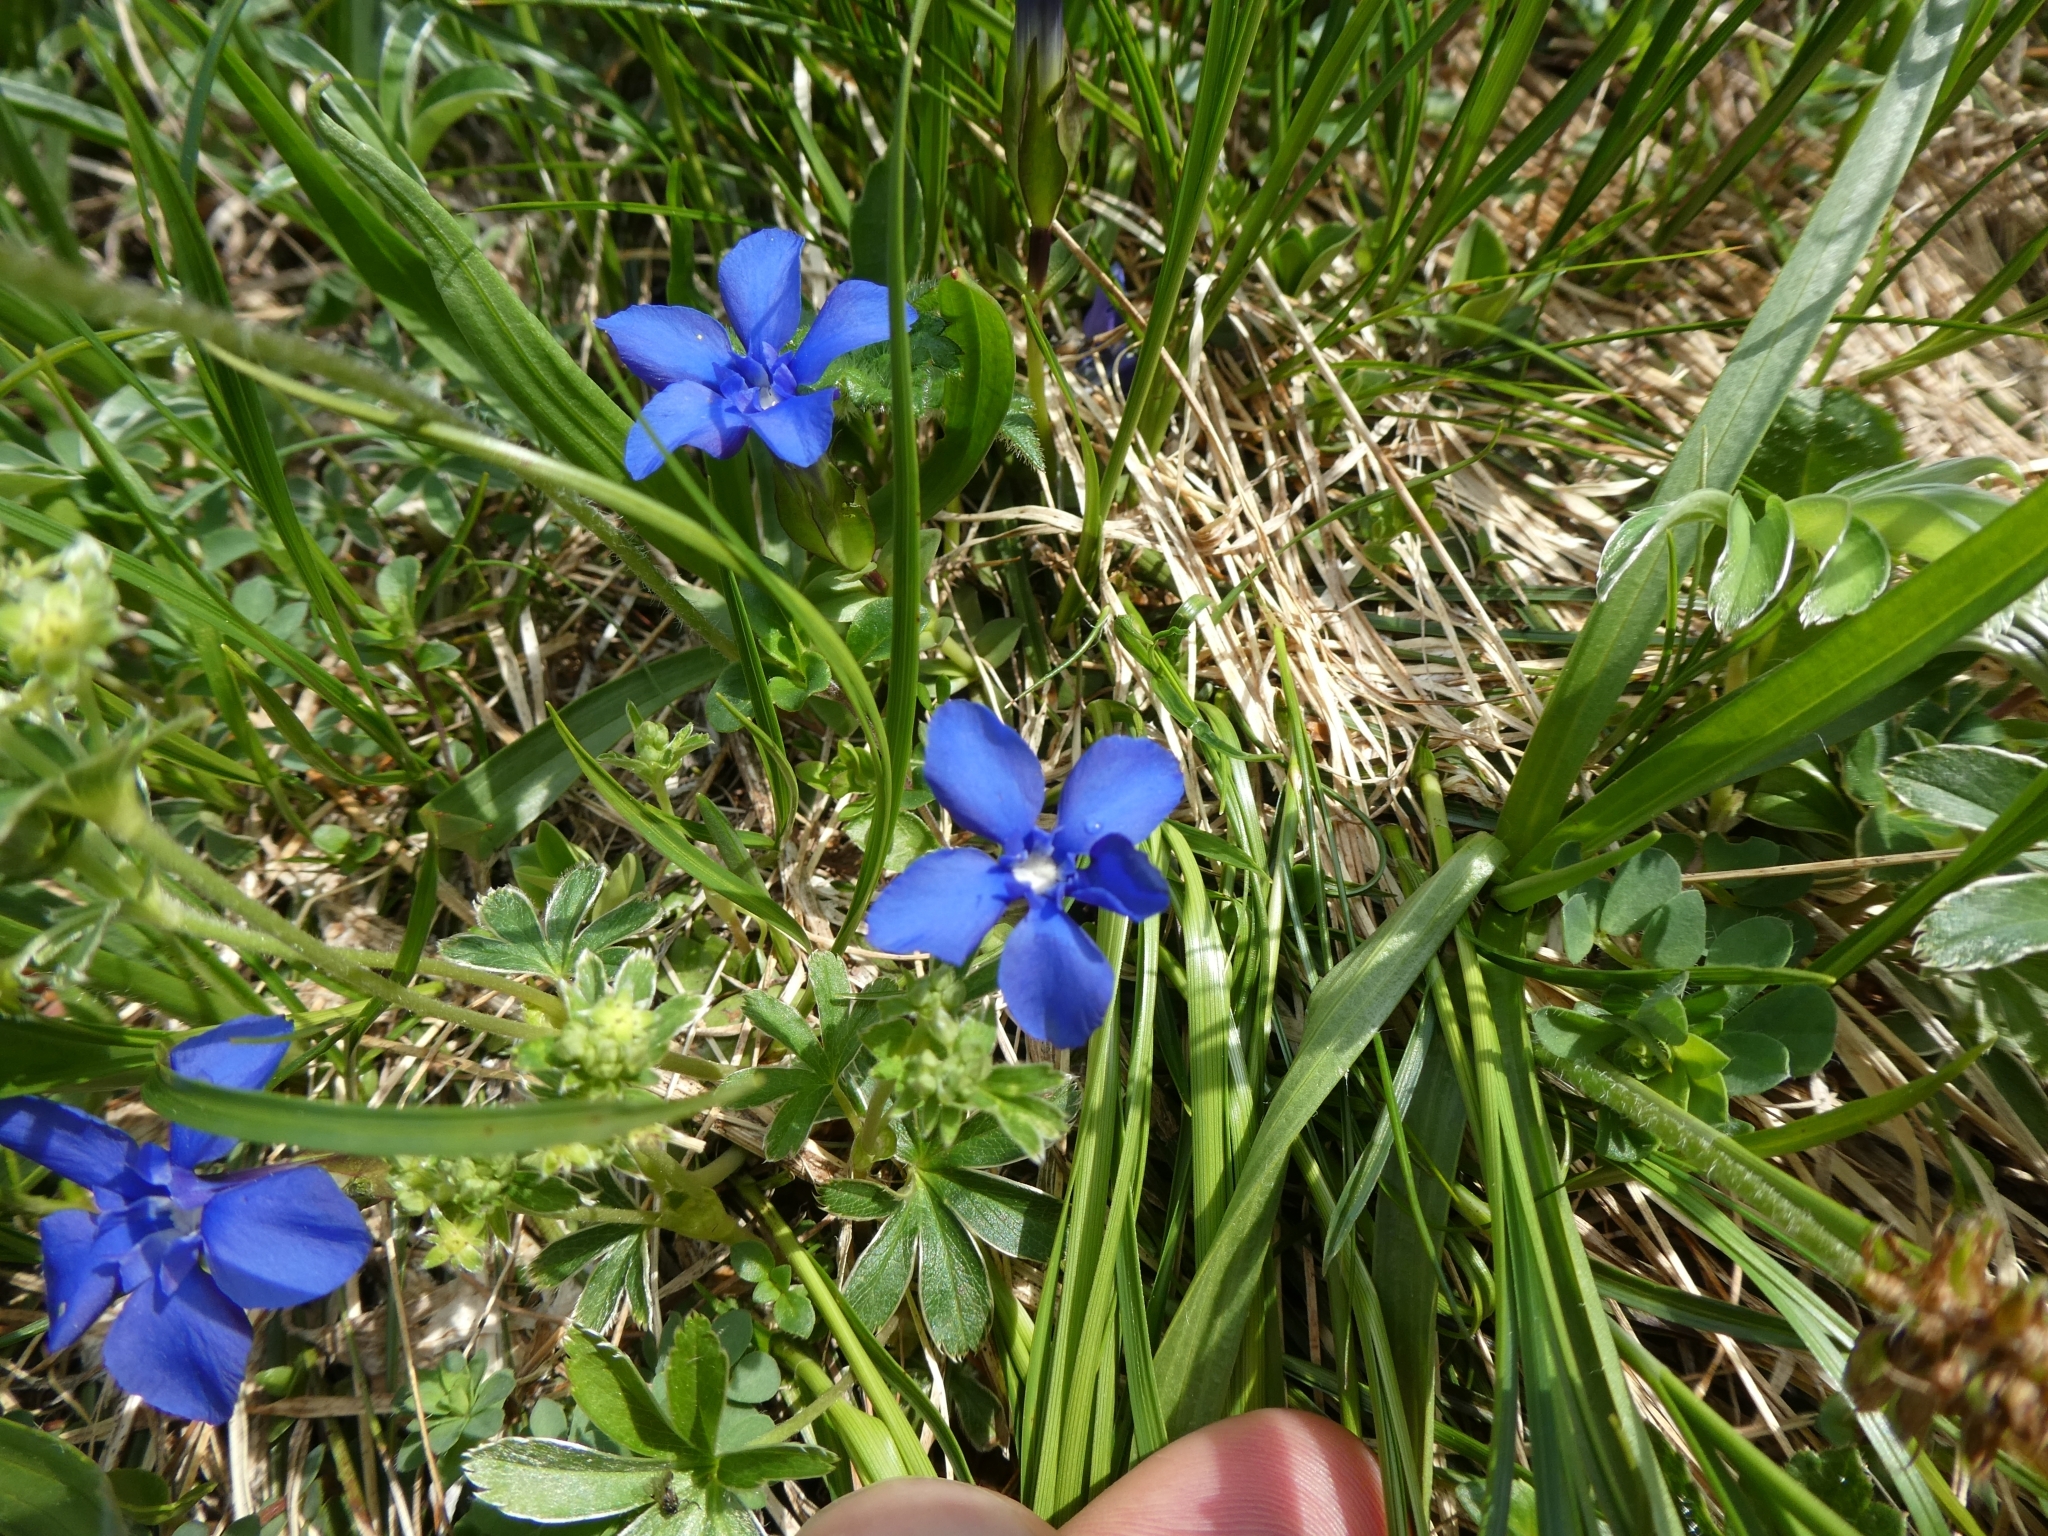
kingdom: Plantae
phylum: Tracheophyta
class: Magnoliopsida
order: Gentianales
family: Gentianaceae
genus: Gentiana
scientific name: Gentiana verna
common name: Spring gentian
